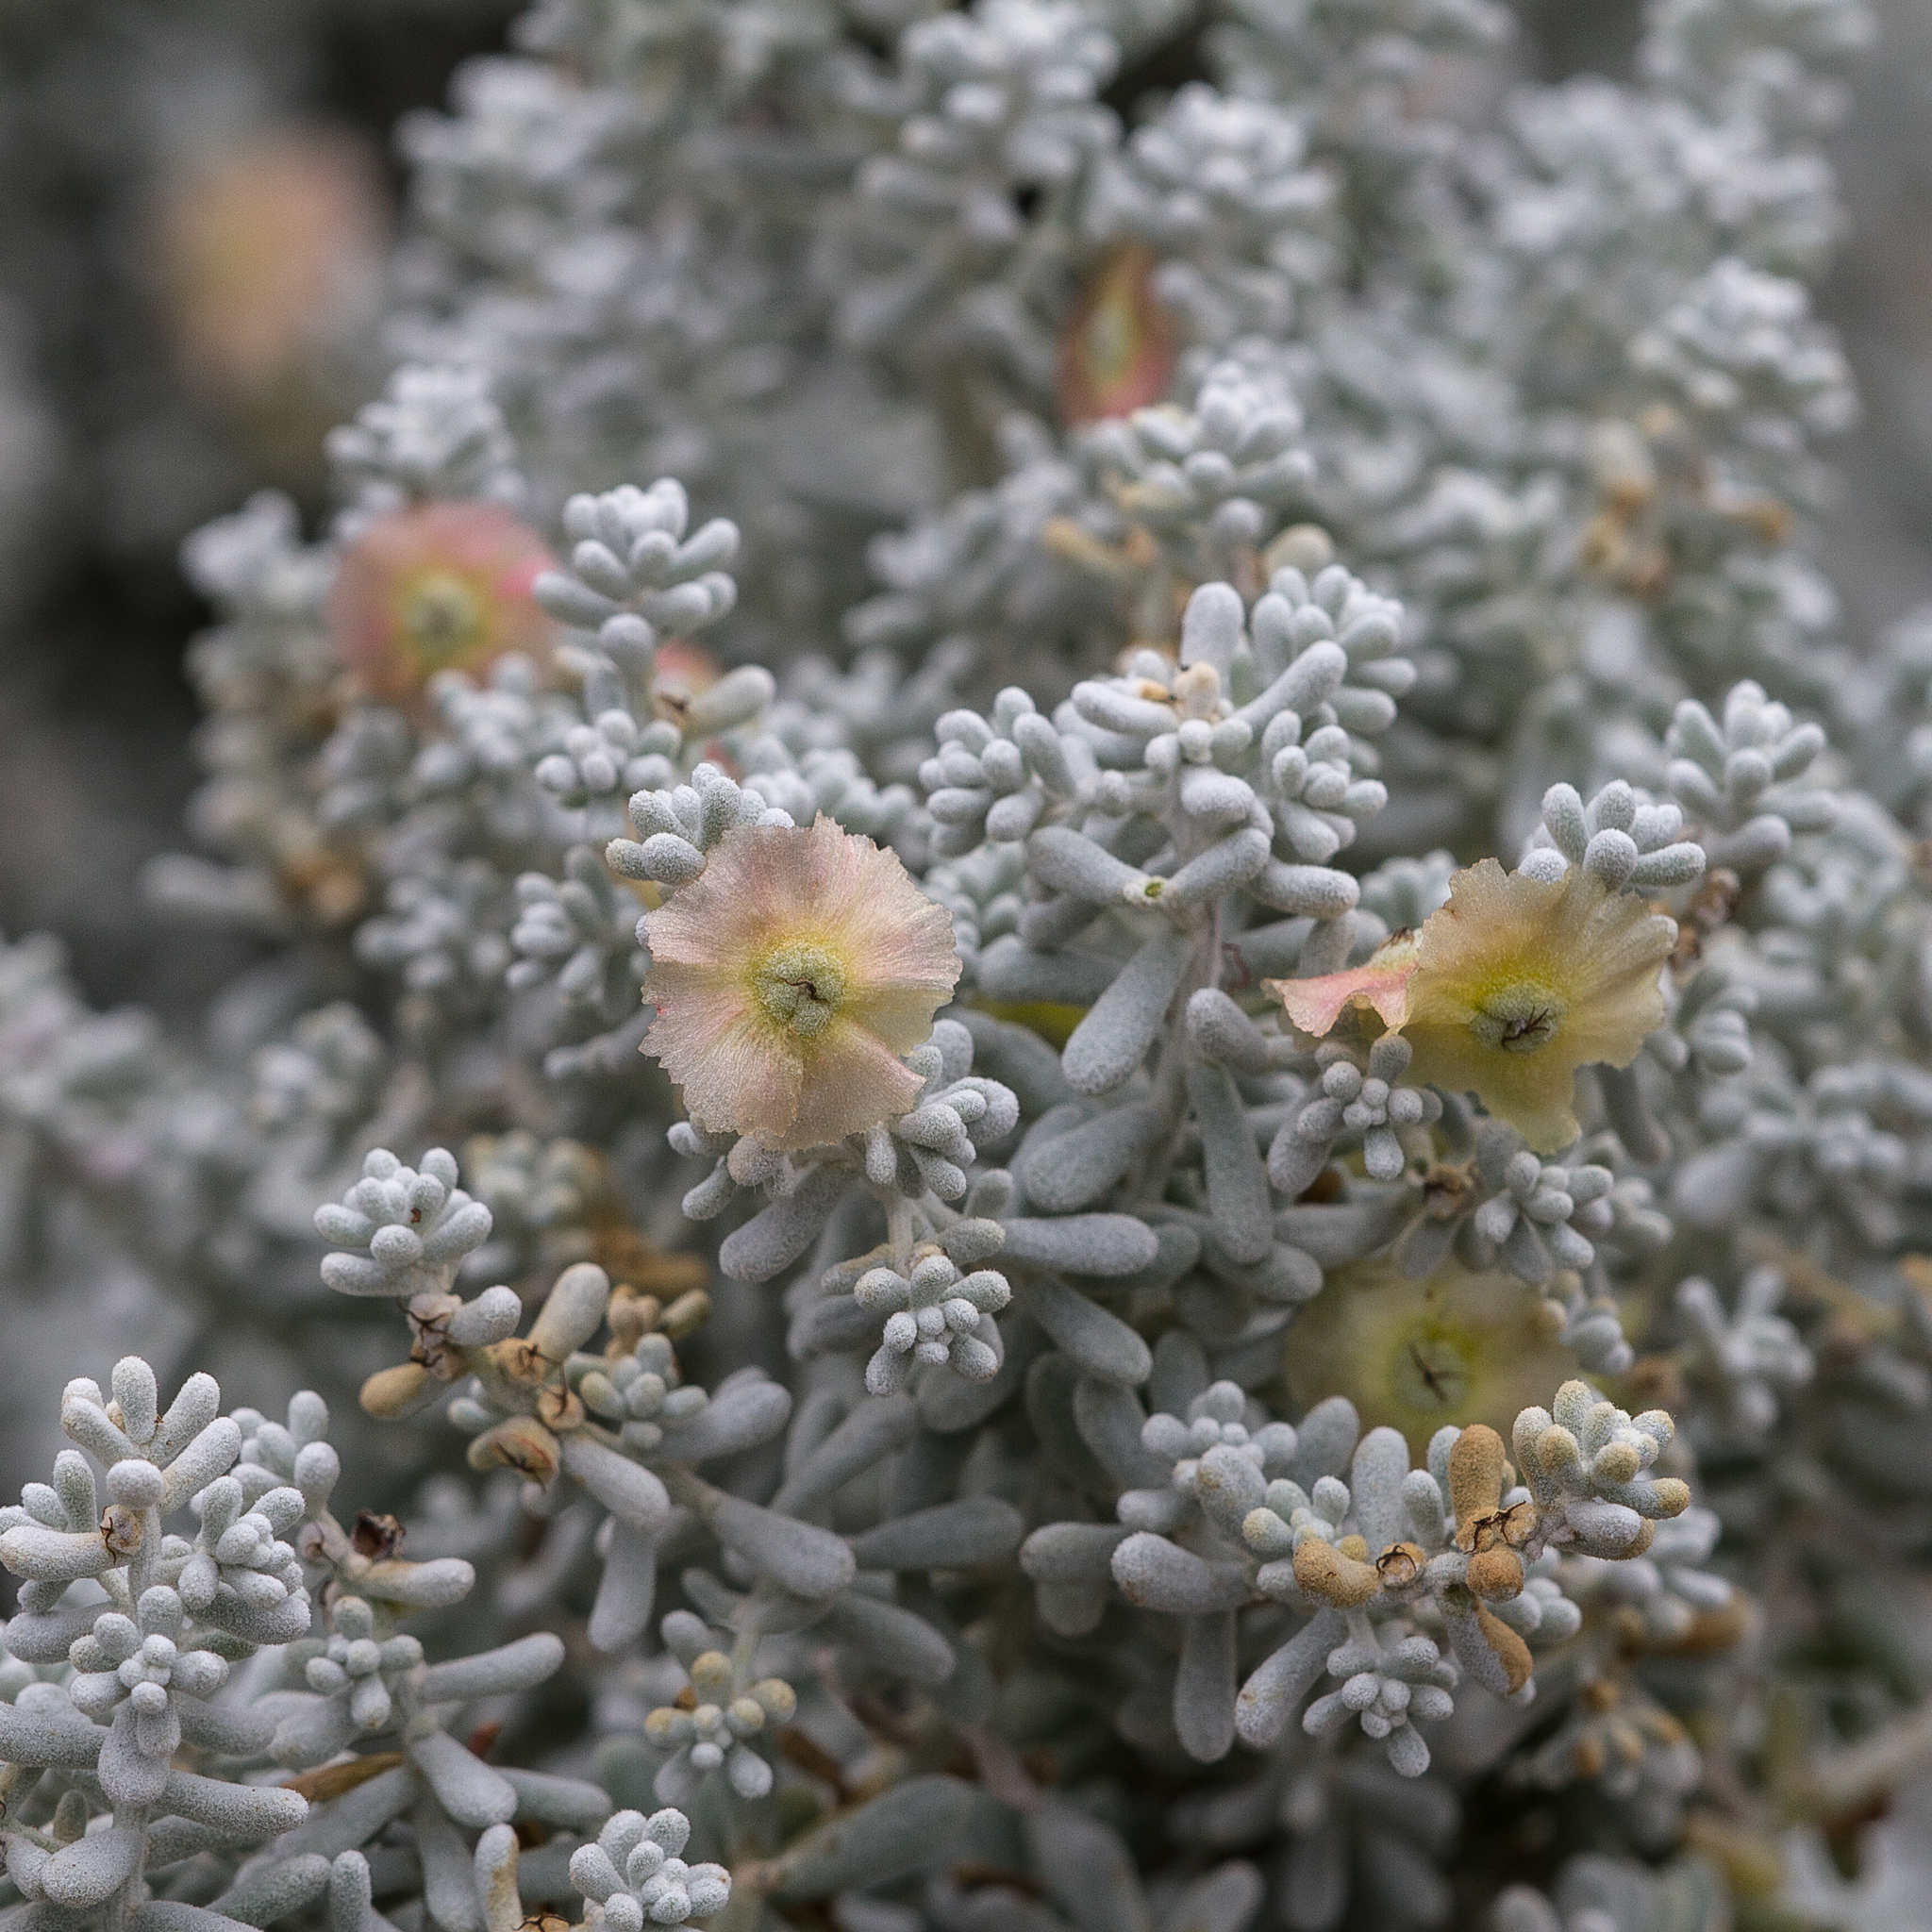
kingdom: Plantae
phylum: Tracheophyta
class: Magnoliopsida
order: Caryophyllales
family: Amaranthaceae
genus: Maireana
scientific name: Maireana sedifolia
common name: Hoary bluebush
